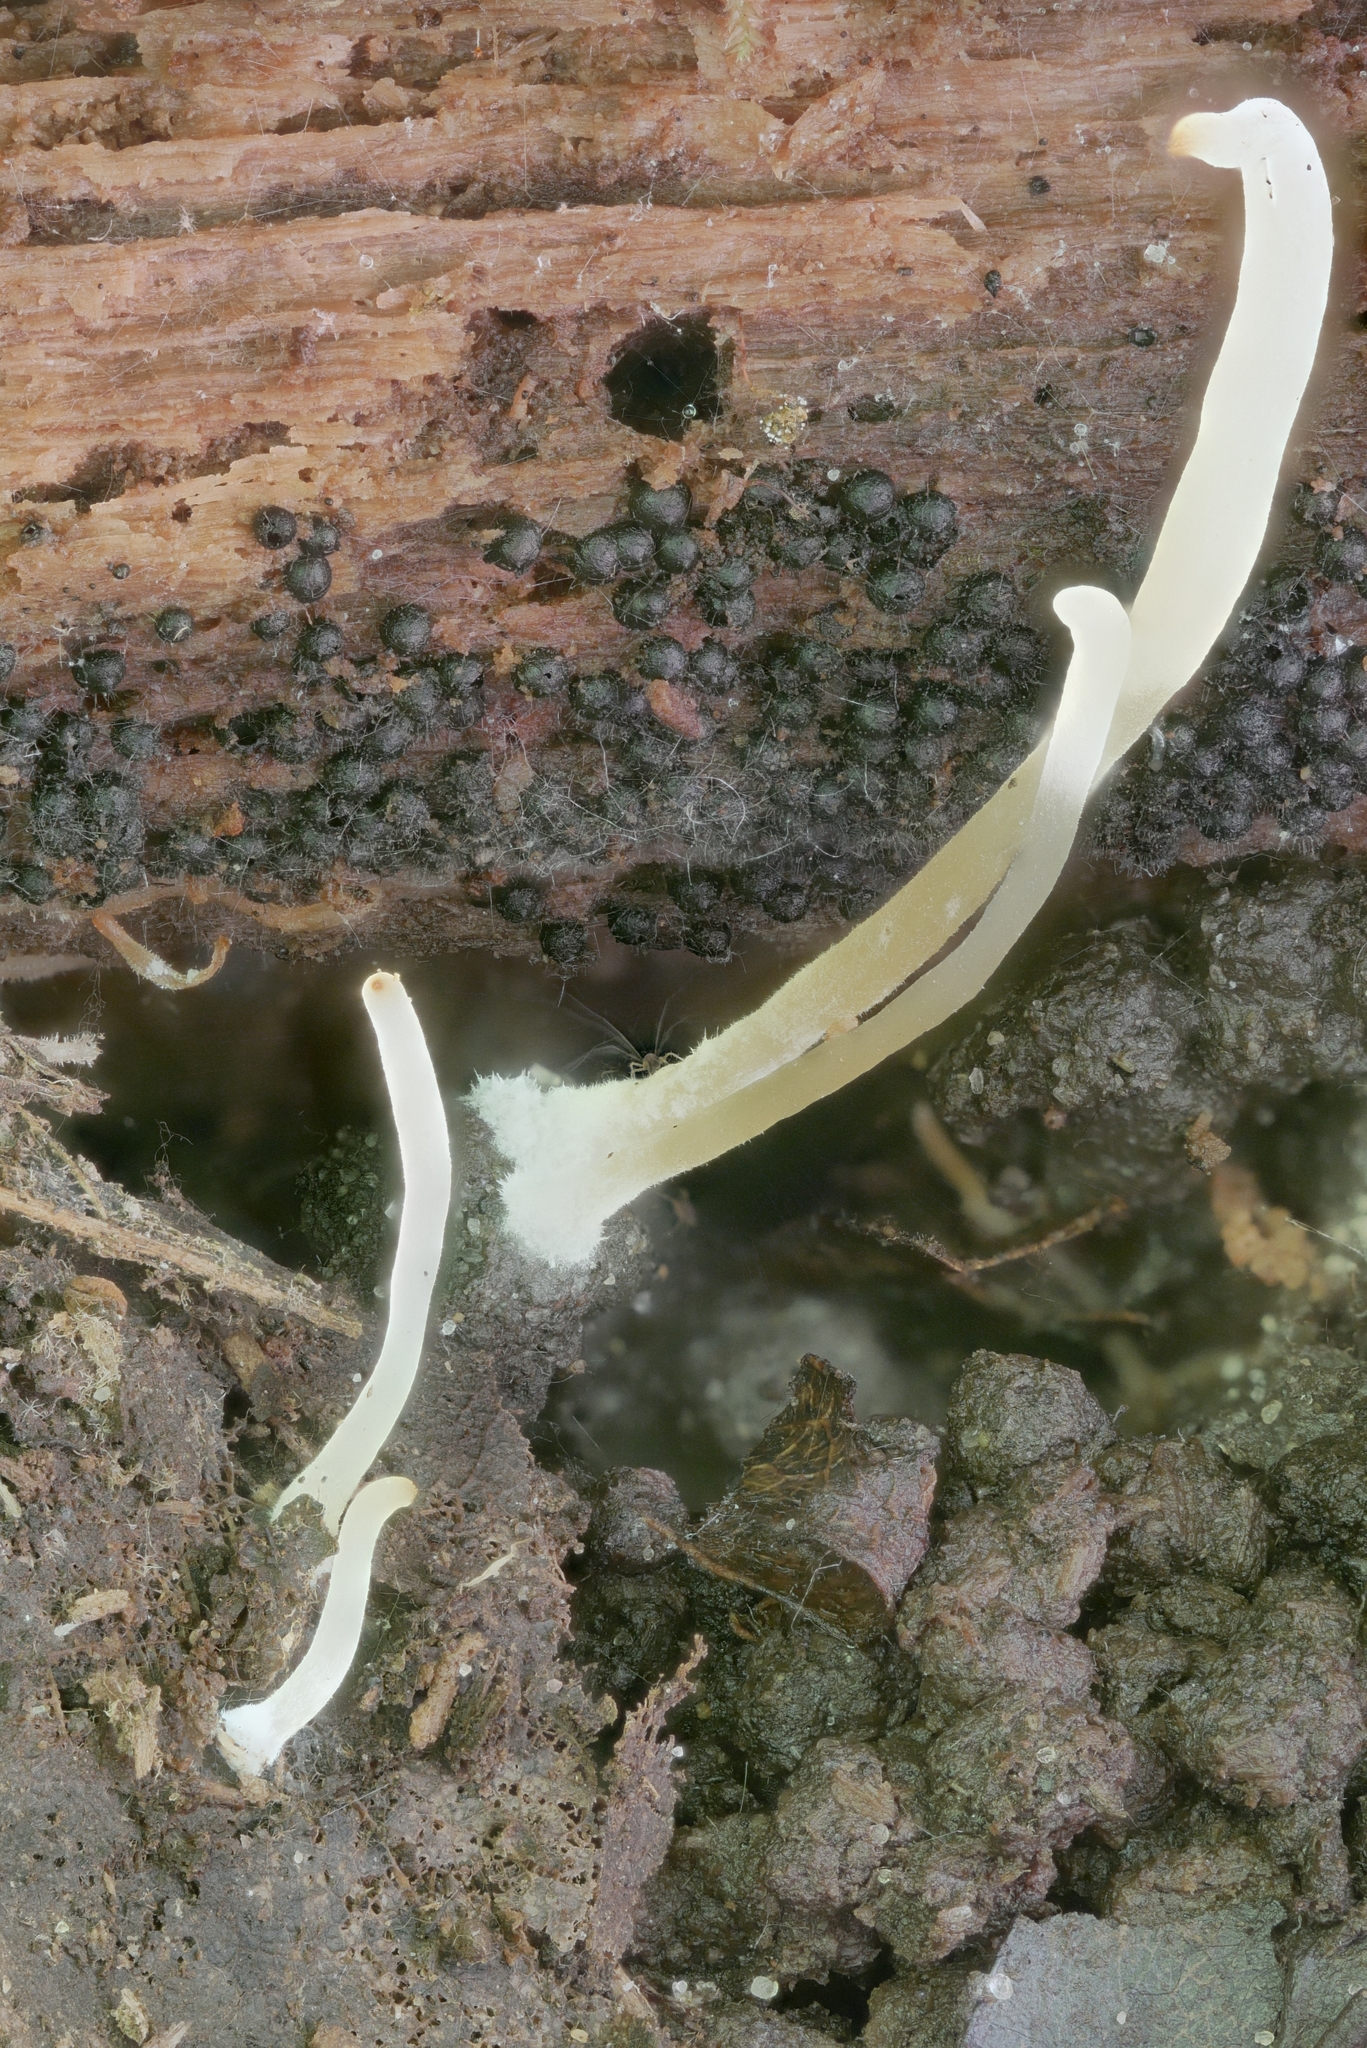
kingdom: Fungi
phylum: Ascomycota
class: Sordariomycetes
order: Xylariales
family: Xylariaceae
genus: Rosellinia
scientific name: Rosellinia corticium
